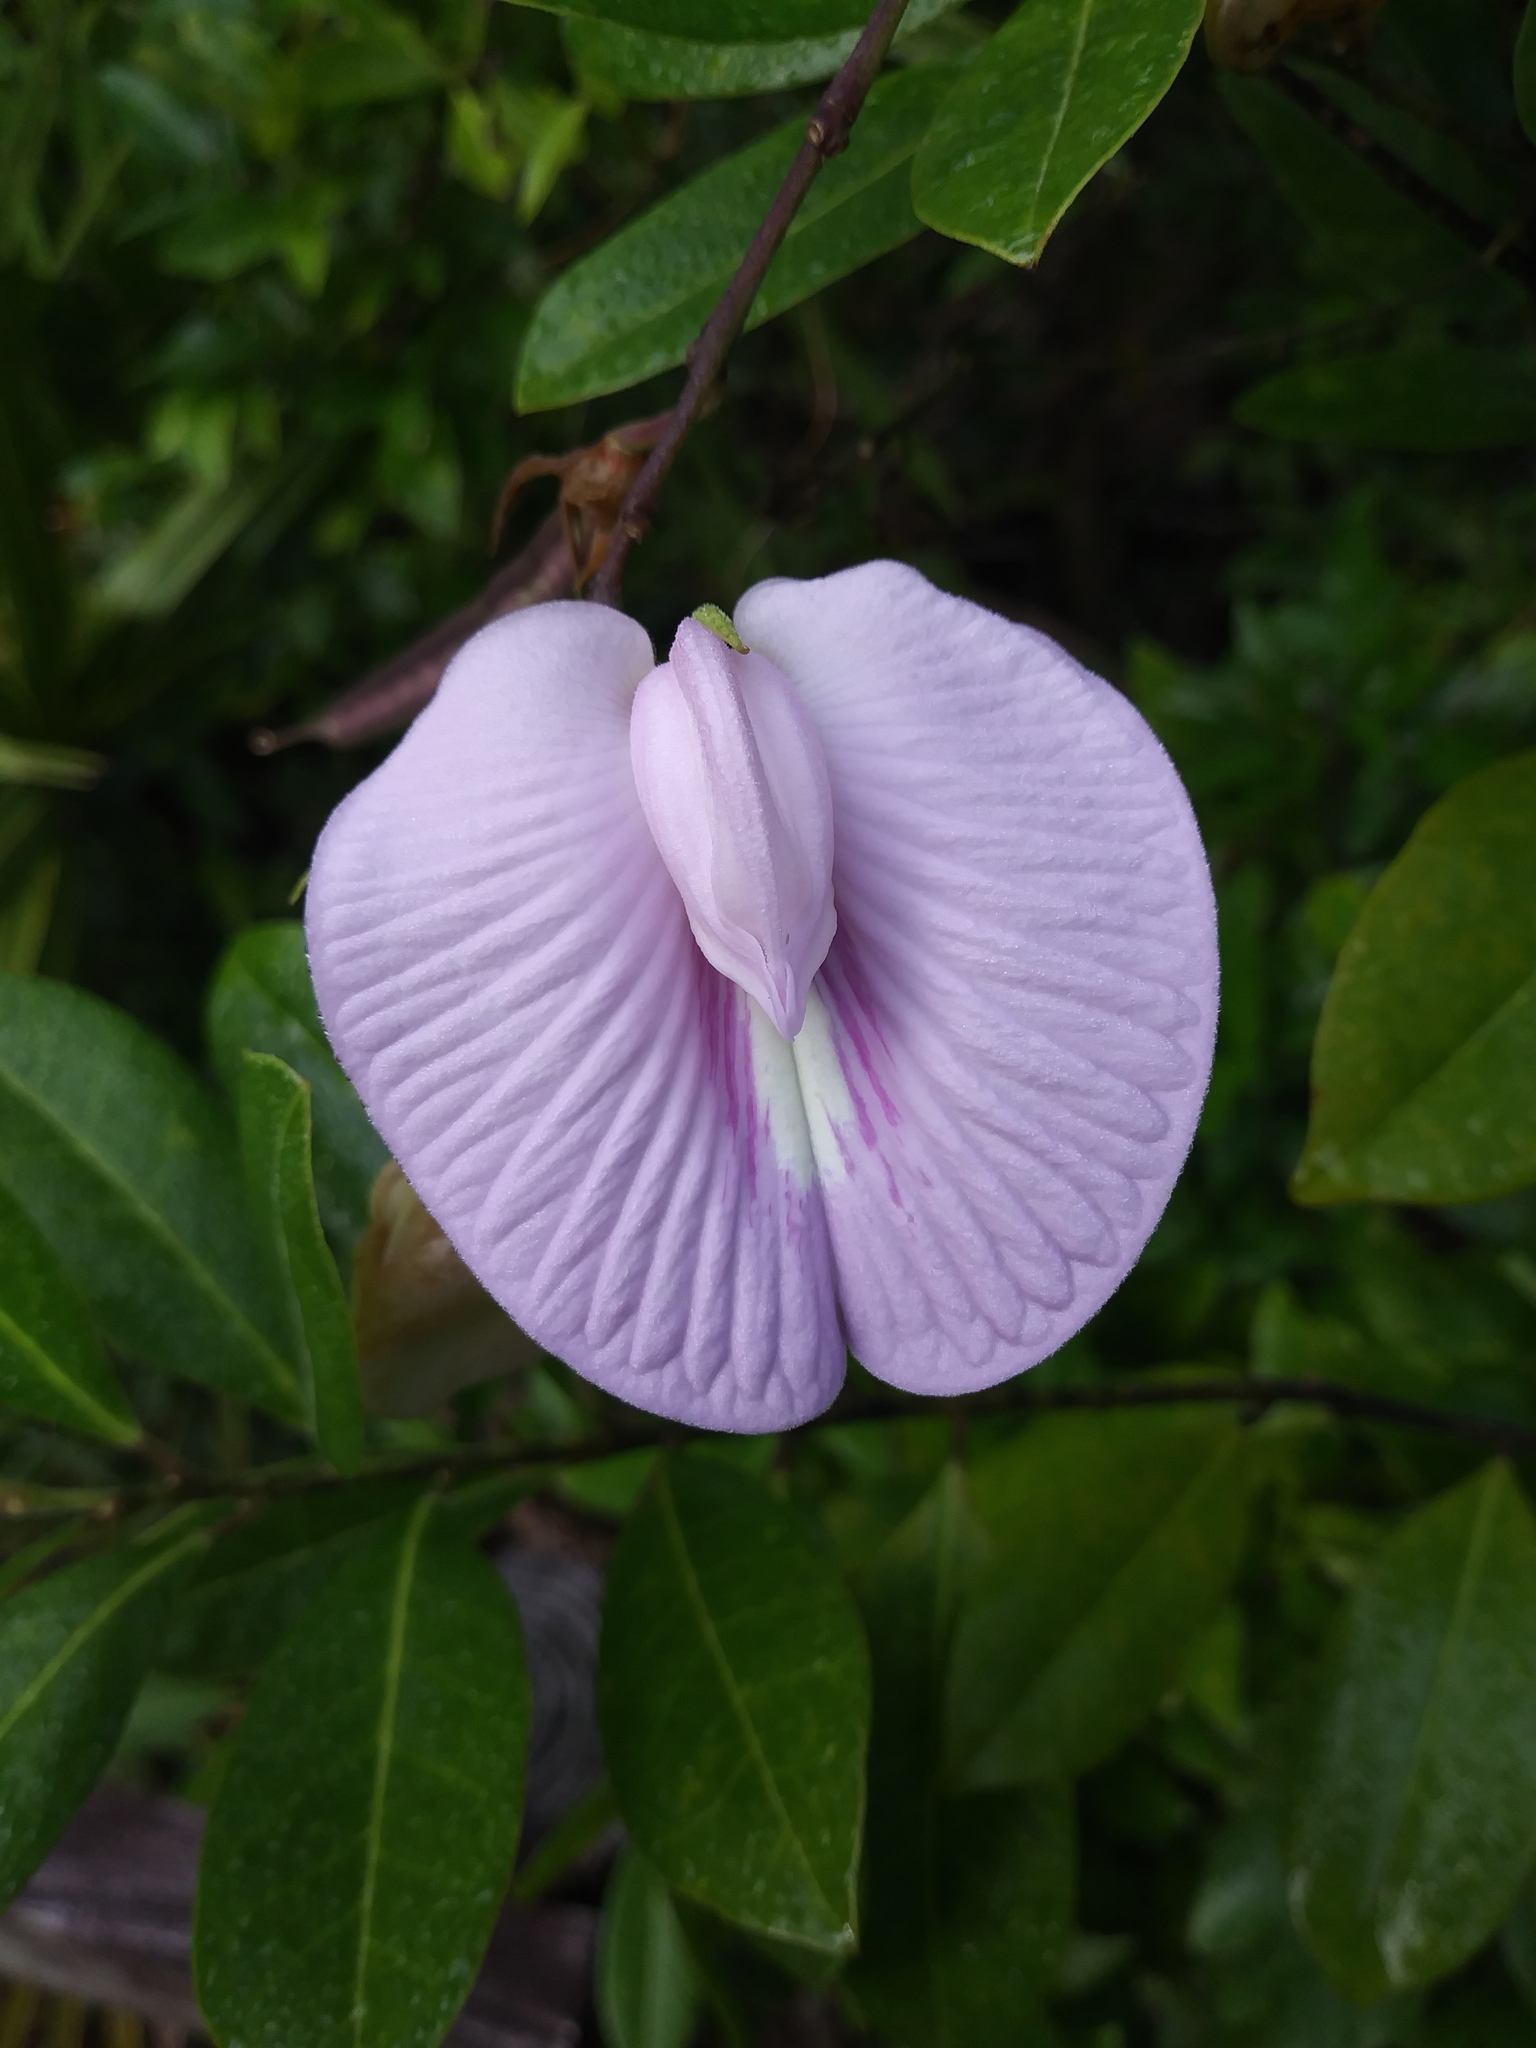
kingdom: Plantae
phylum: Tracheophyta
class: Magnoliopsida
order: Fabales
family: Fabaceae
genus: Centrosema
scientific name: Centrosema virginianum
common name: Butterfly-pea
